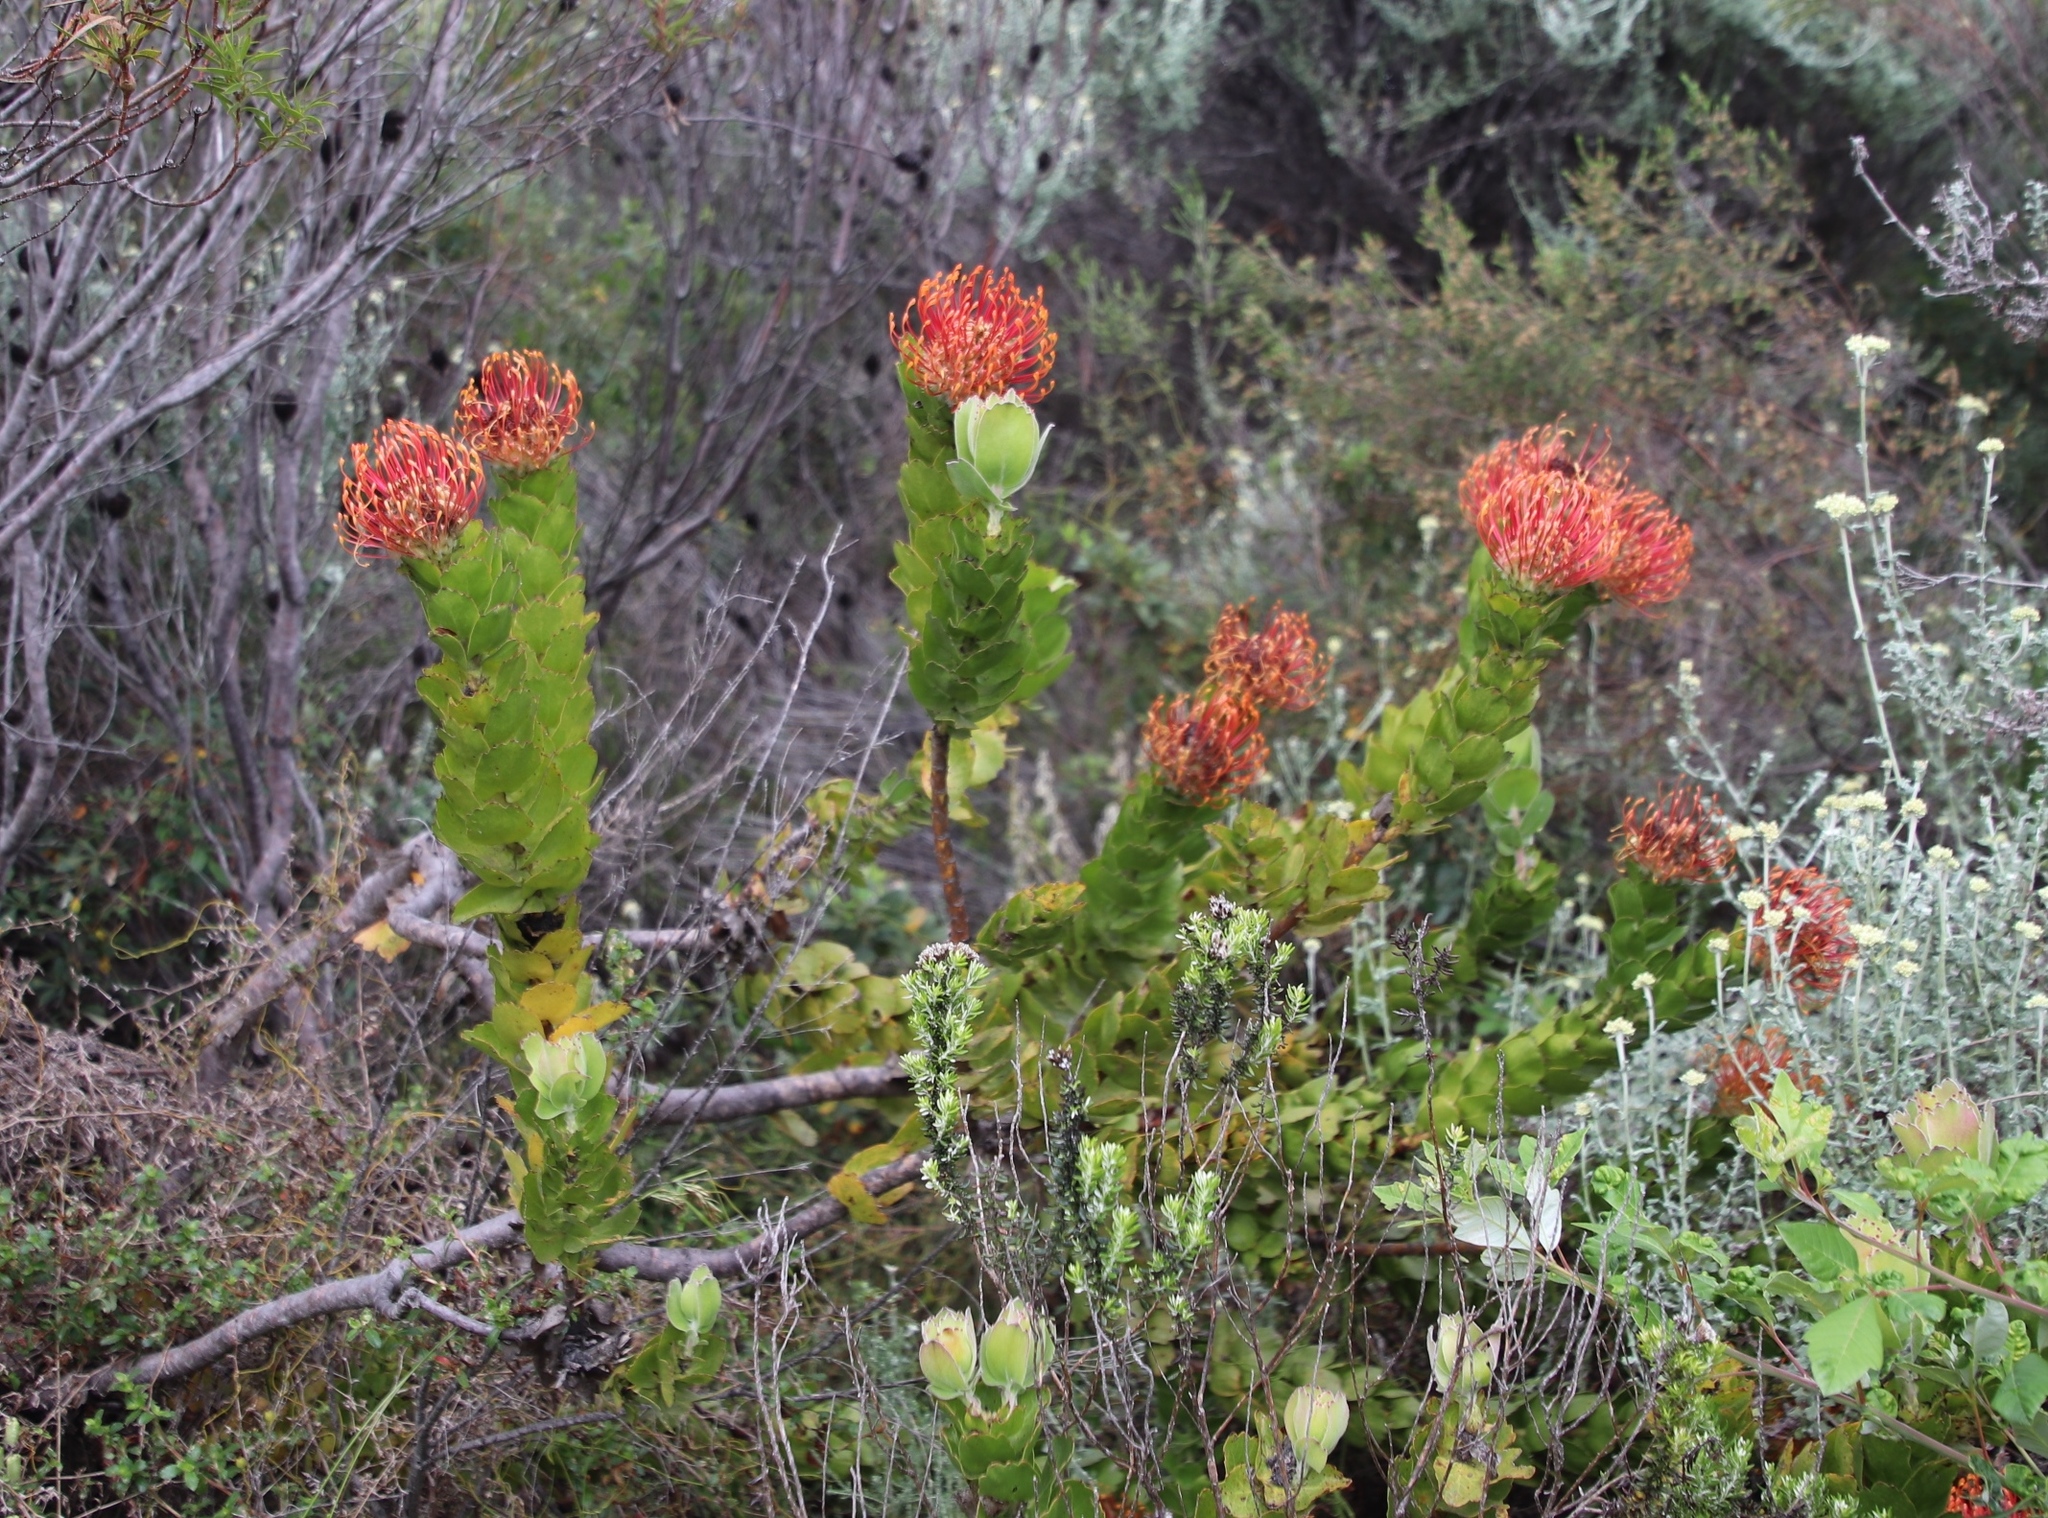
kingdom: Plantae
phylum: Tracheophyta
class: Magnoliopsida
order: Proteales
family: Proteaceae
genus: Leucospermum
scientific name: Leucospermum patersonii
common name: False tree pincushion
